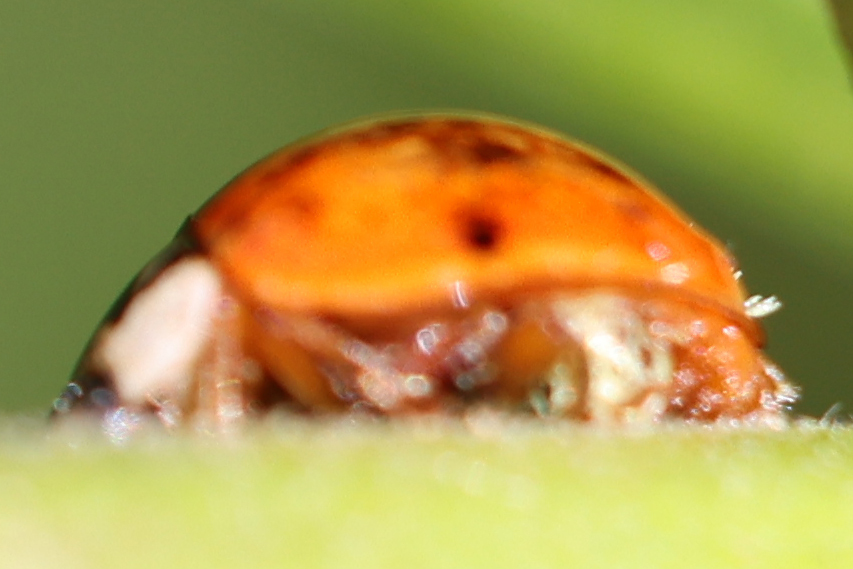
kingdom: Fungi
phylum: Ascomycota
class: Laboulbeniomycetes
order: Laboulbeniales
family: Laboulbeniaceae
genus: Hesperomyces
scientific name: Hesperomyces harmoniae
